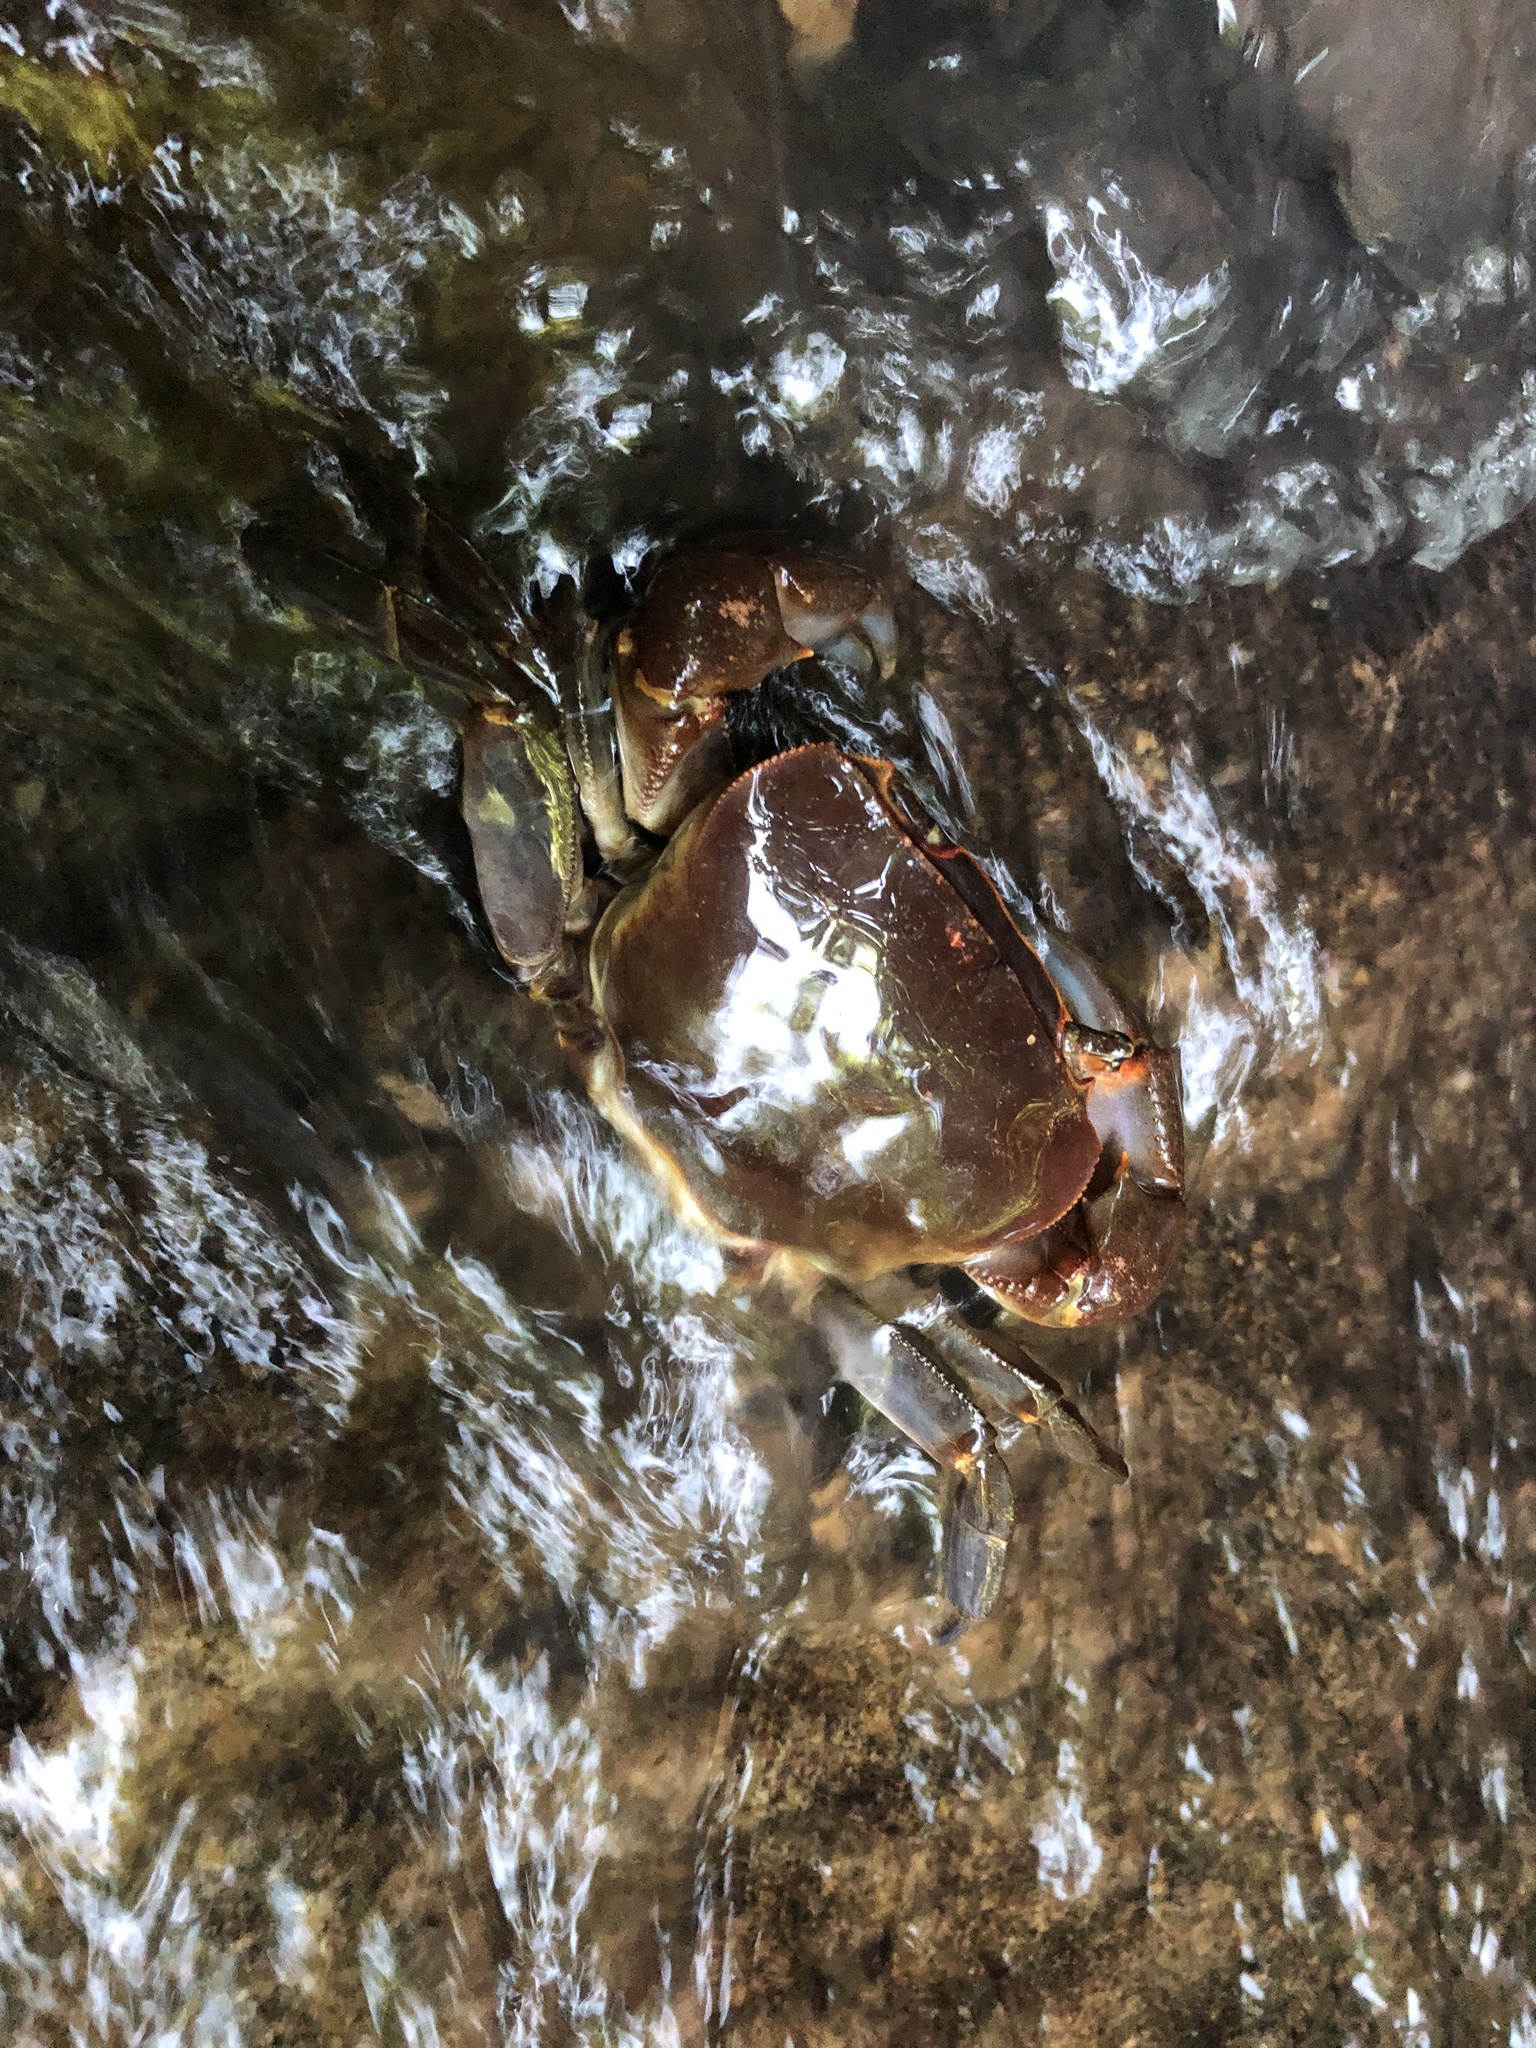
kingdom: Animalia
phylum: Arthropoda
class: Malacostraca
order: Decapoda
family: Potamonautidae
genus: Potamonautes
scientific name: Potamonautes sidneyi
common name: Natal river crab
